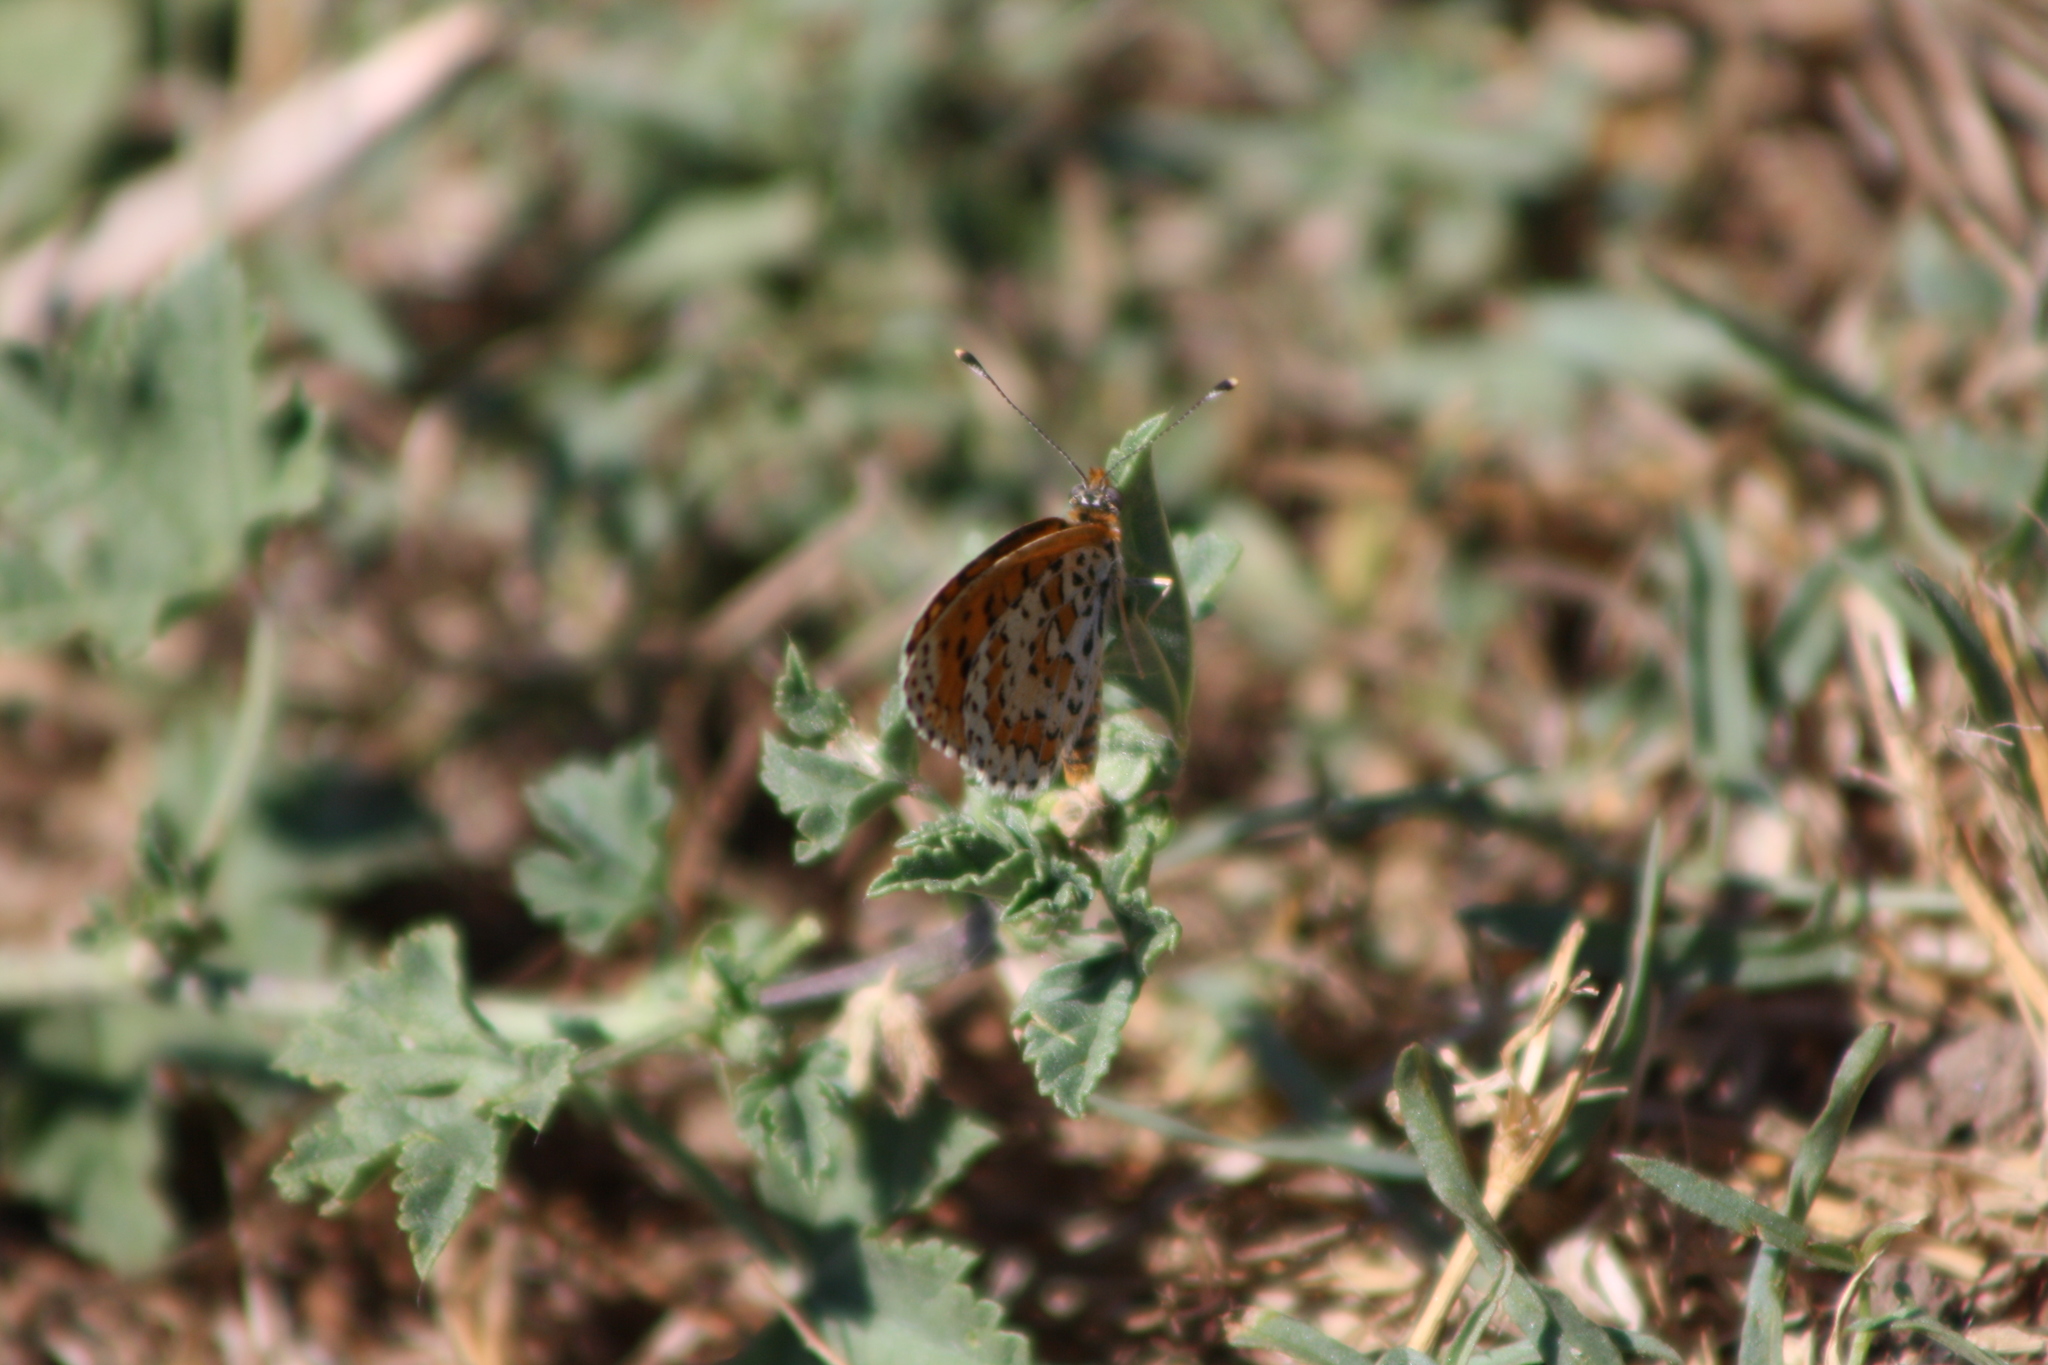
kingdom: Animalia
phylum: Arthropoda
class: Insecta
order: Lepidoptera
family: Nymphalidae
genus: Melitaea
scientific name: Melitaea trivia
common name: Lesser spotted fritillary
